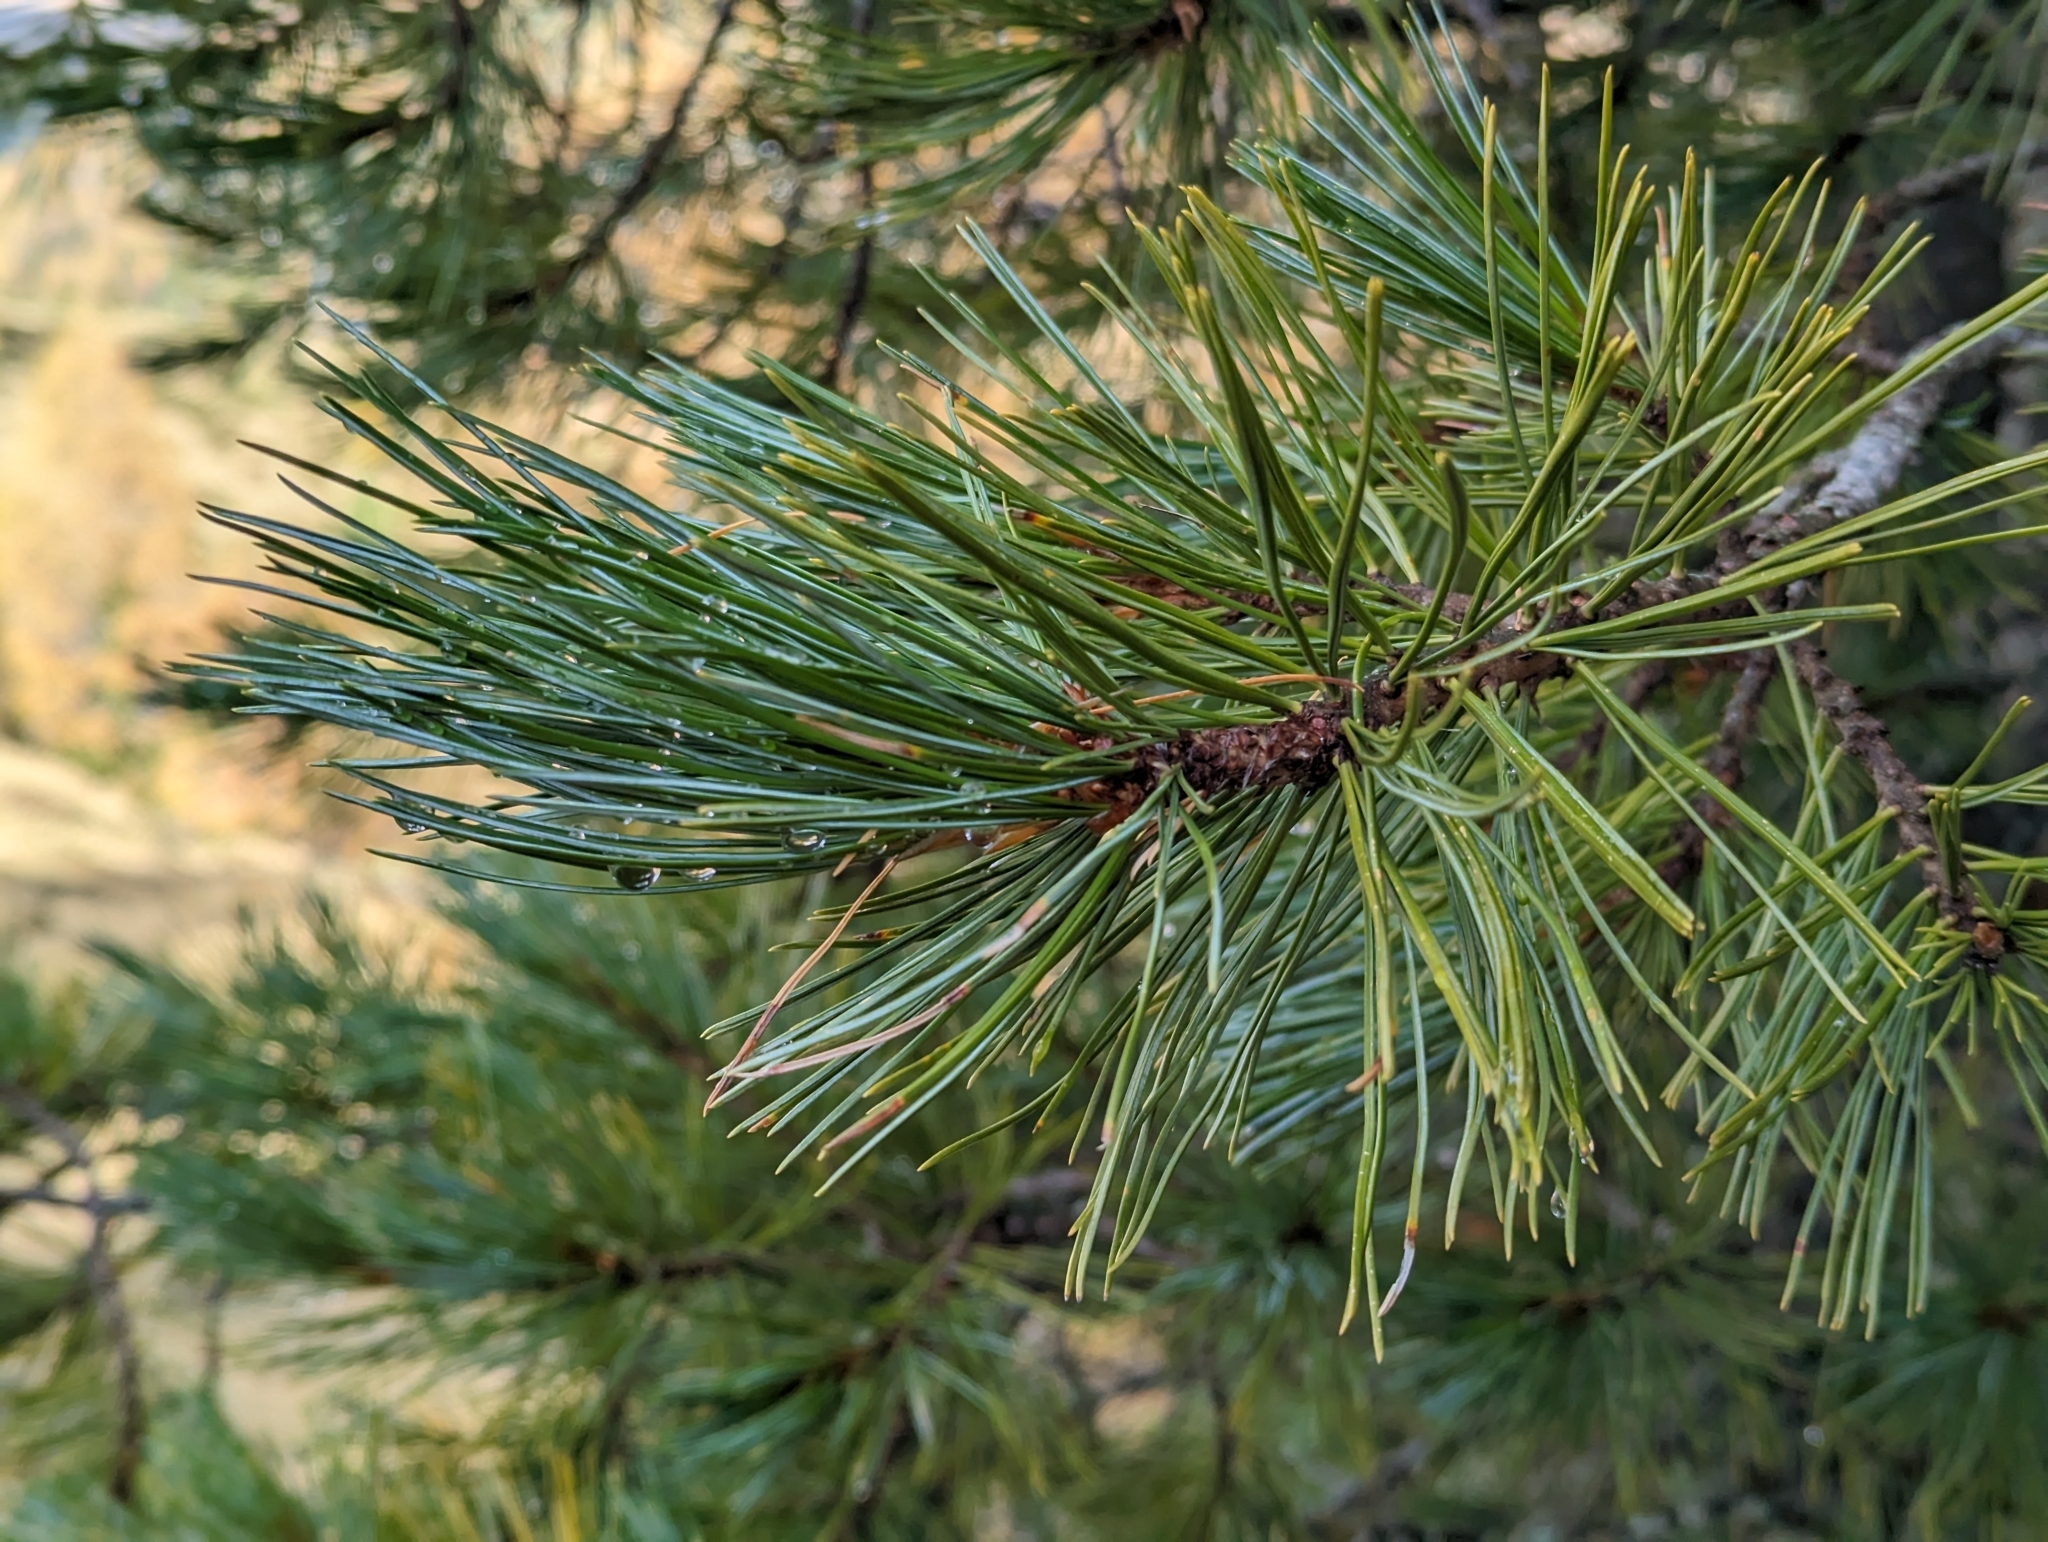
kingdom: Plantae
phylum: Tracheophyta
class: Pinopsida
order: Pinales
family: Pinaceae
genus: Pinus
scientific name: Pinus cembra
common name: Arolla pine
